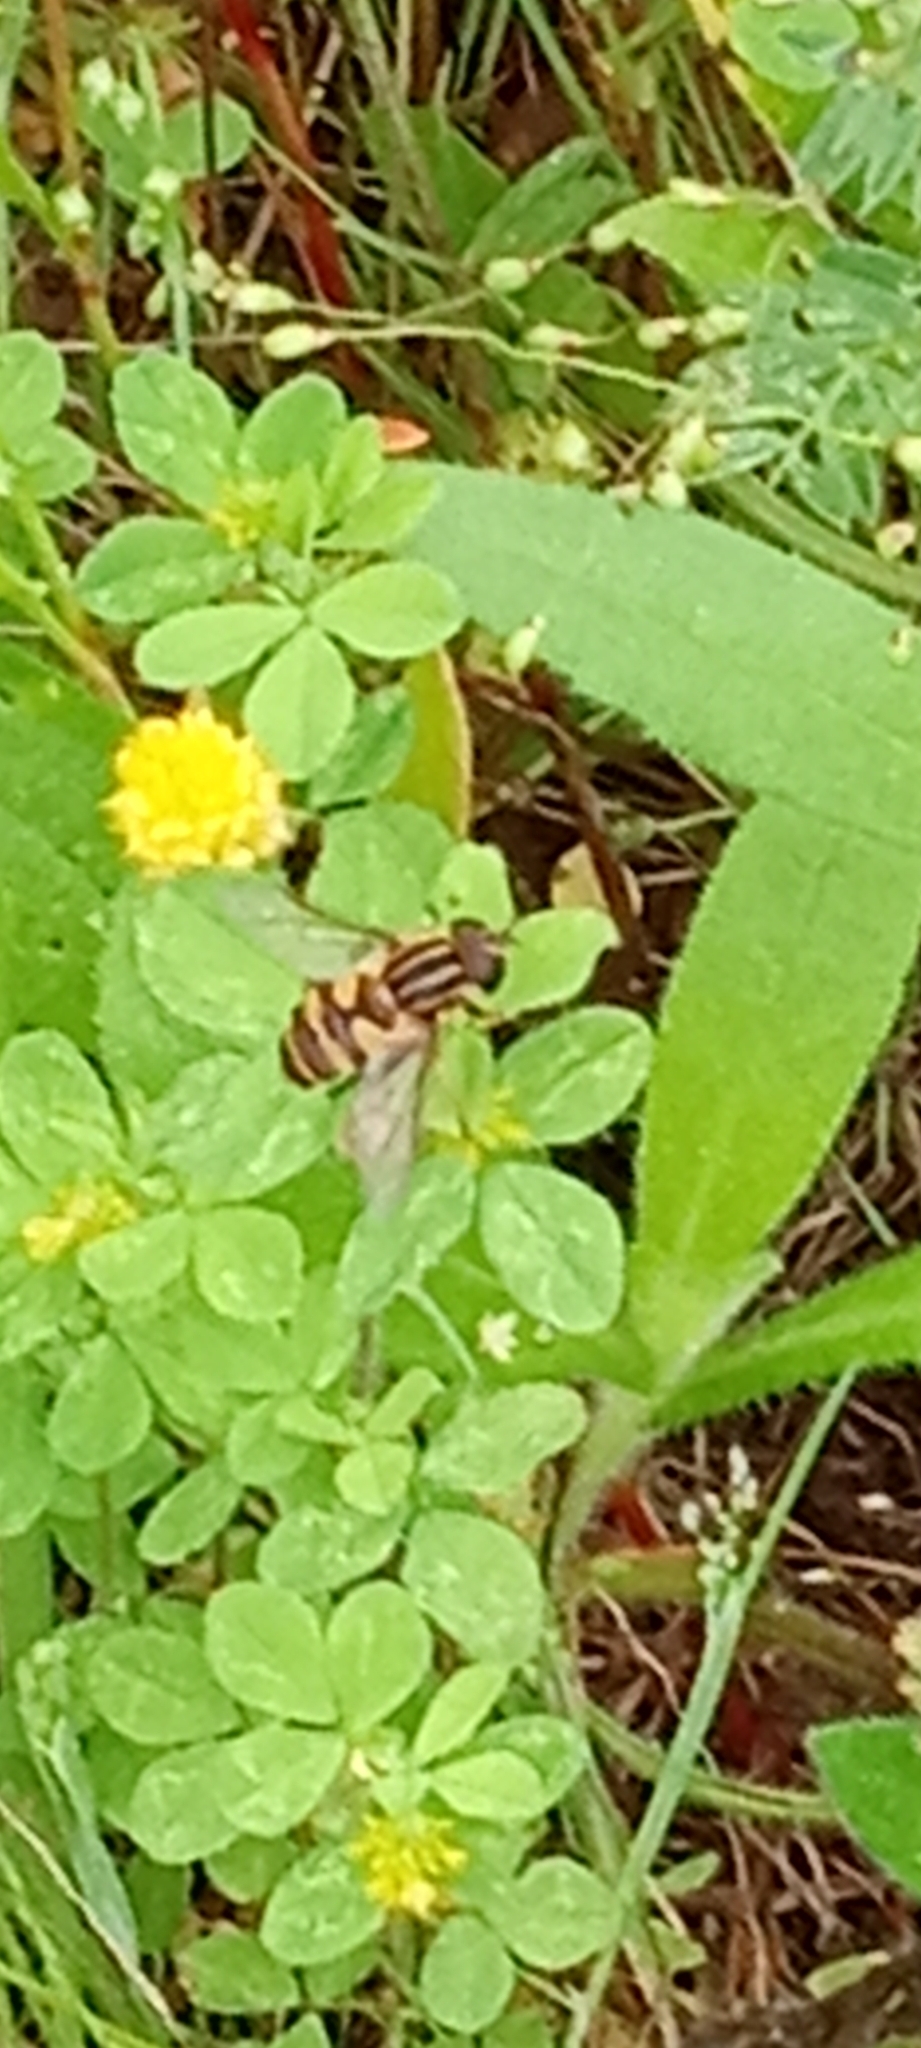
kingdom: Animalia
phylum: Arthropoda
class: Insecta
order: Diptera
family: Syrphidae
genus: Helophilus
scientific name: Helophilus fasciatus
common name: Narrow-headed marsh fly
